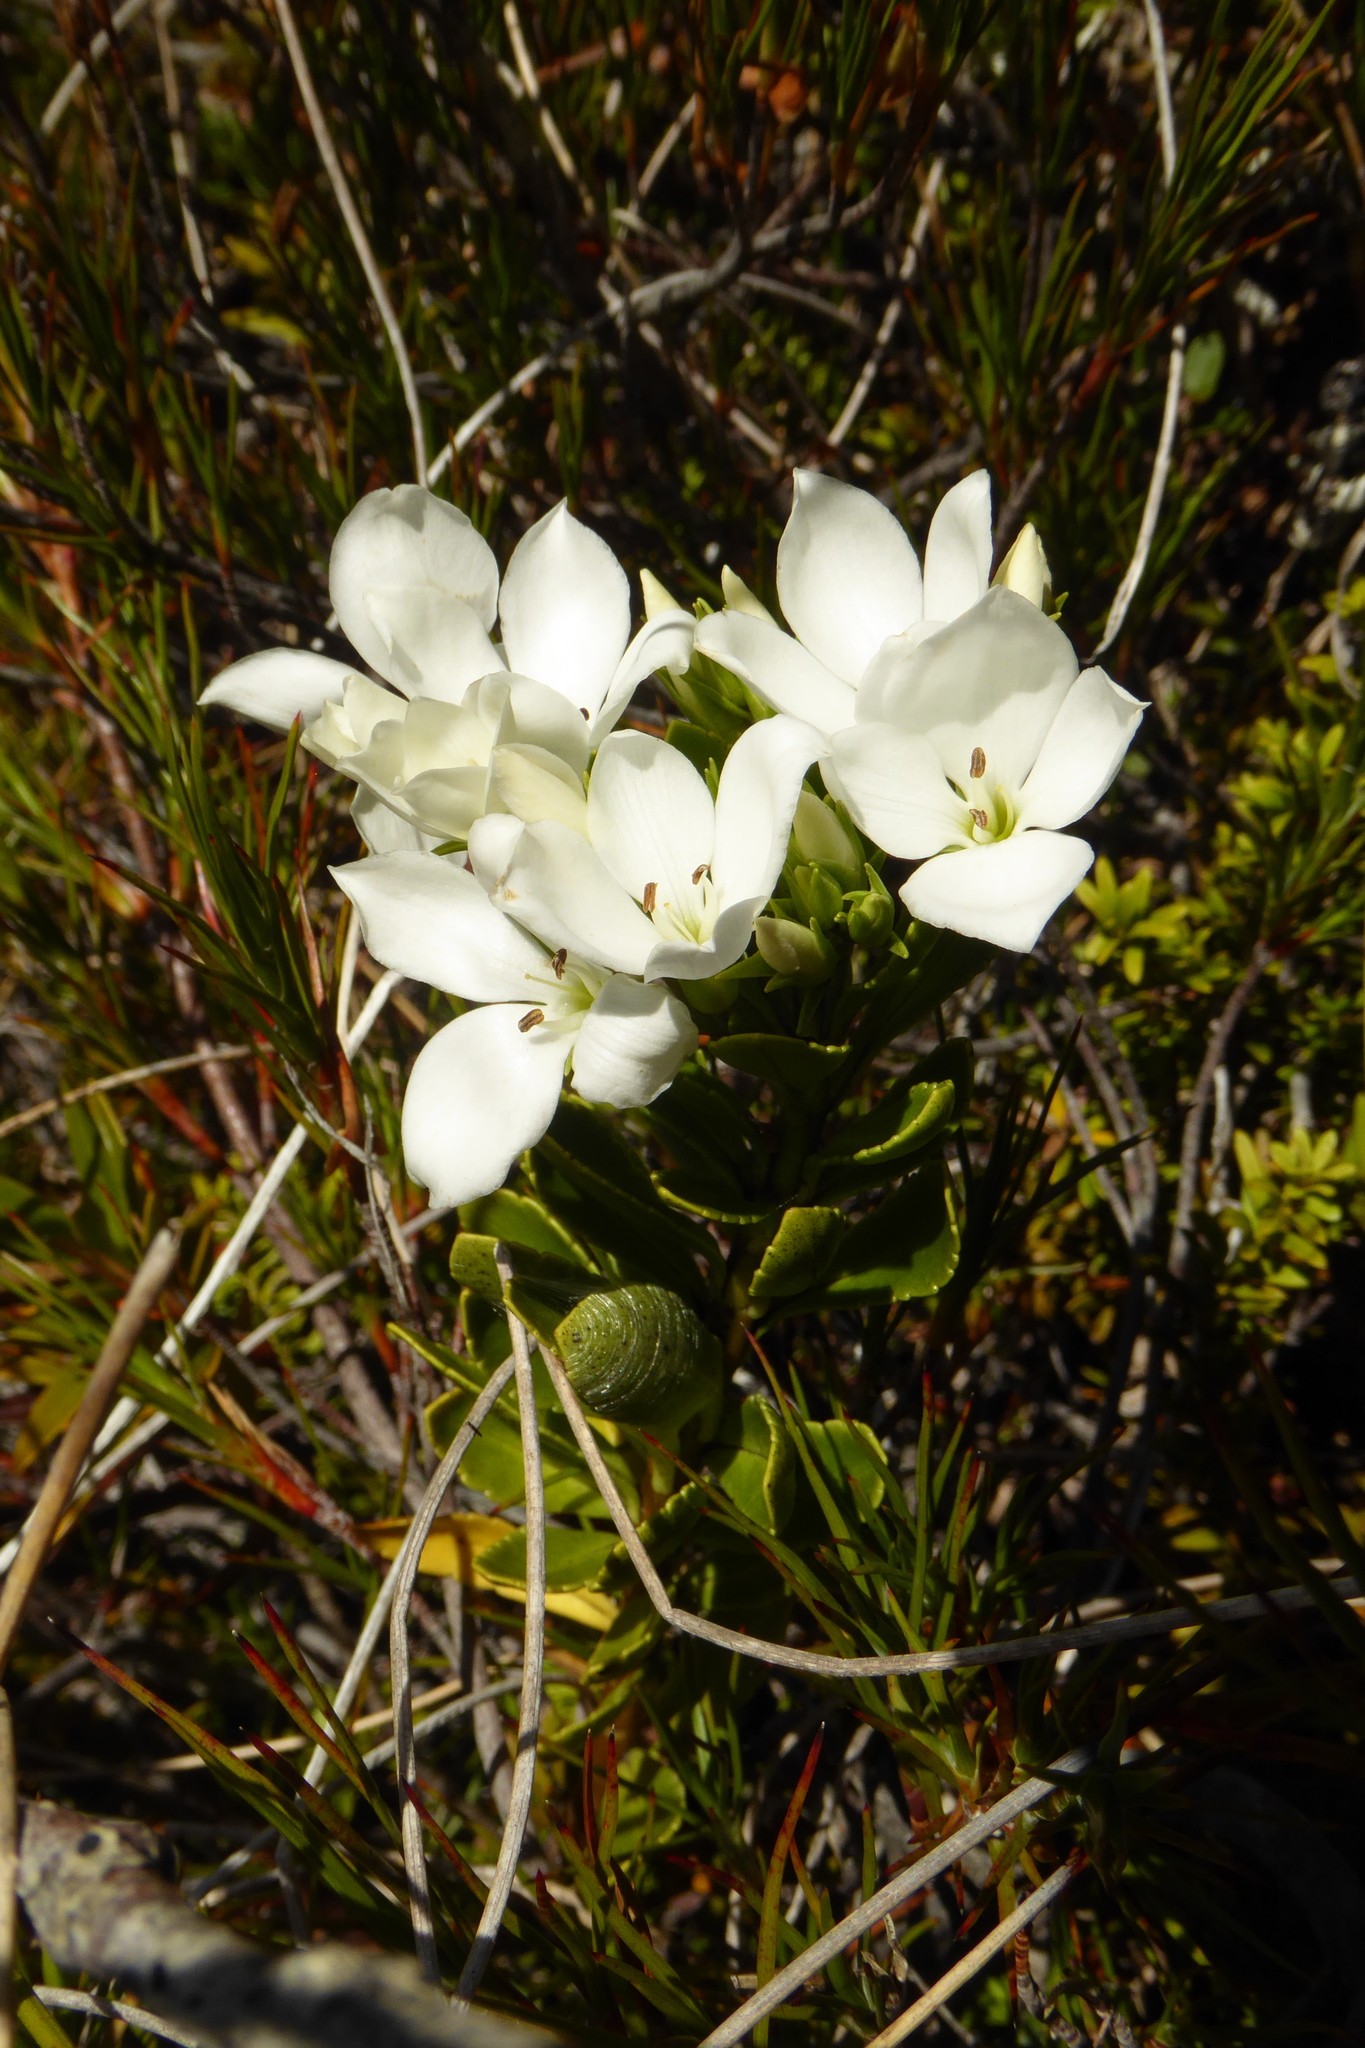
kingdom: Plantae
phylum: Tracheophyta
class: Magnoliopsida
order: Lamiales
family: Plantaginaceae
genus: Veronica
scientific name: Veronica macrantha
